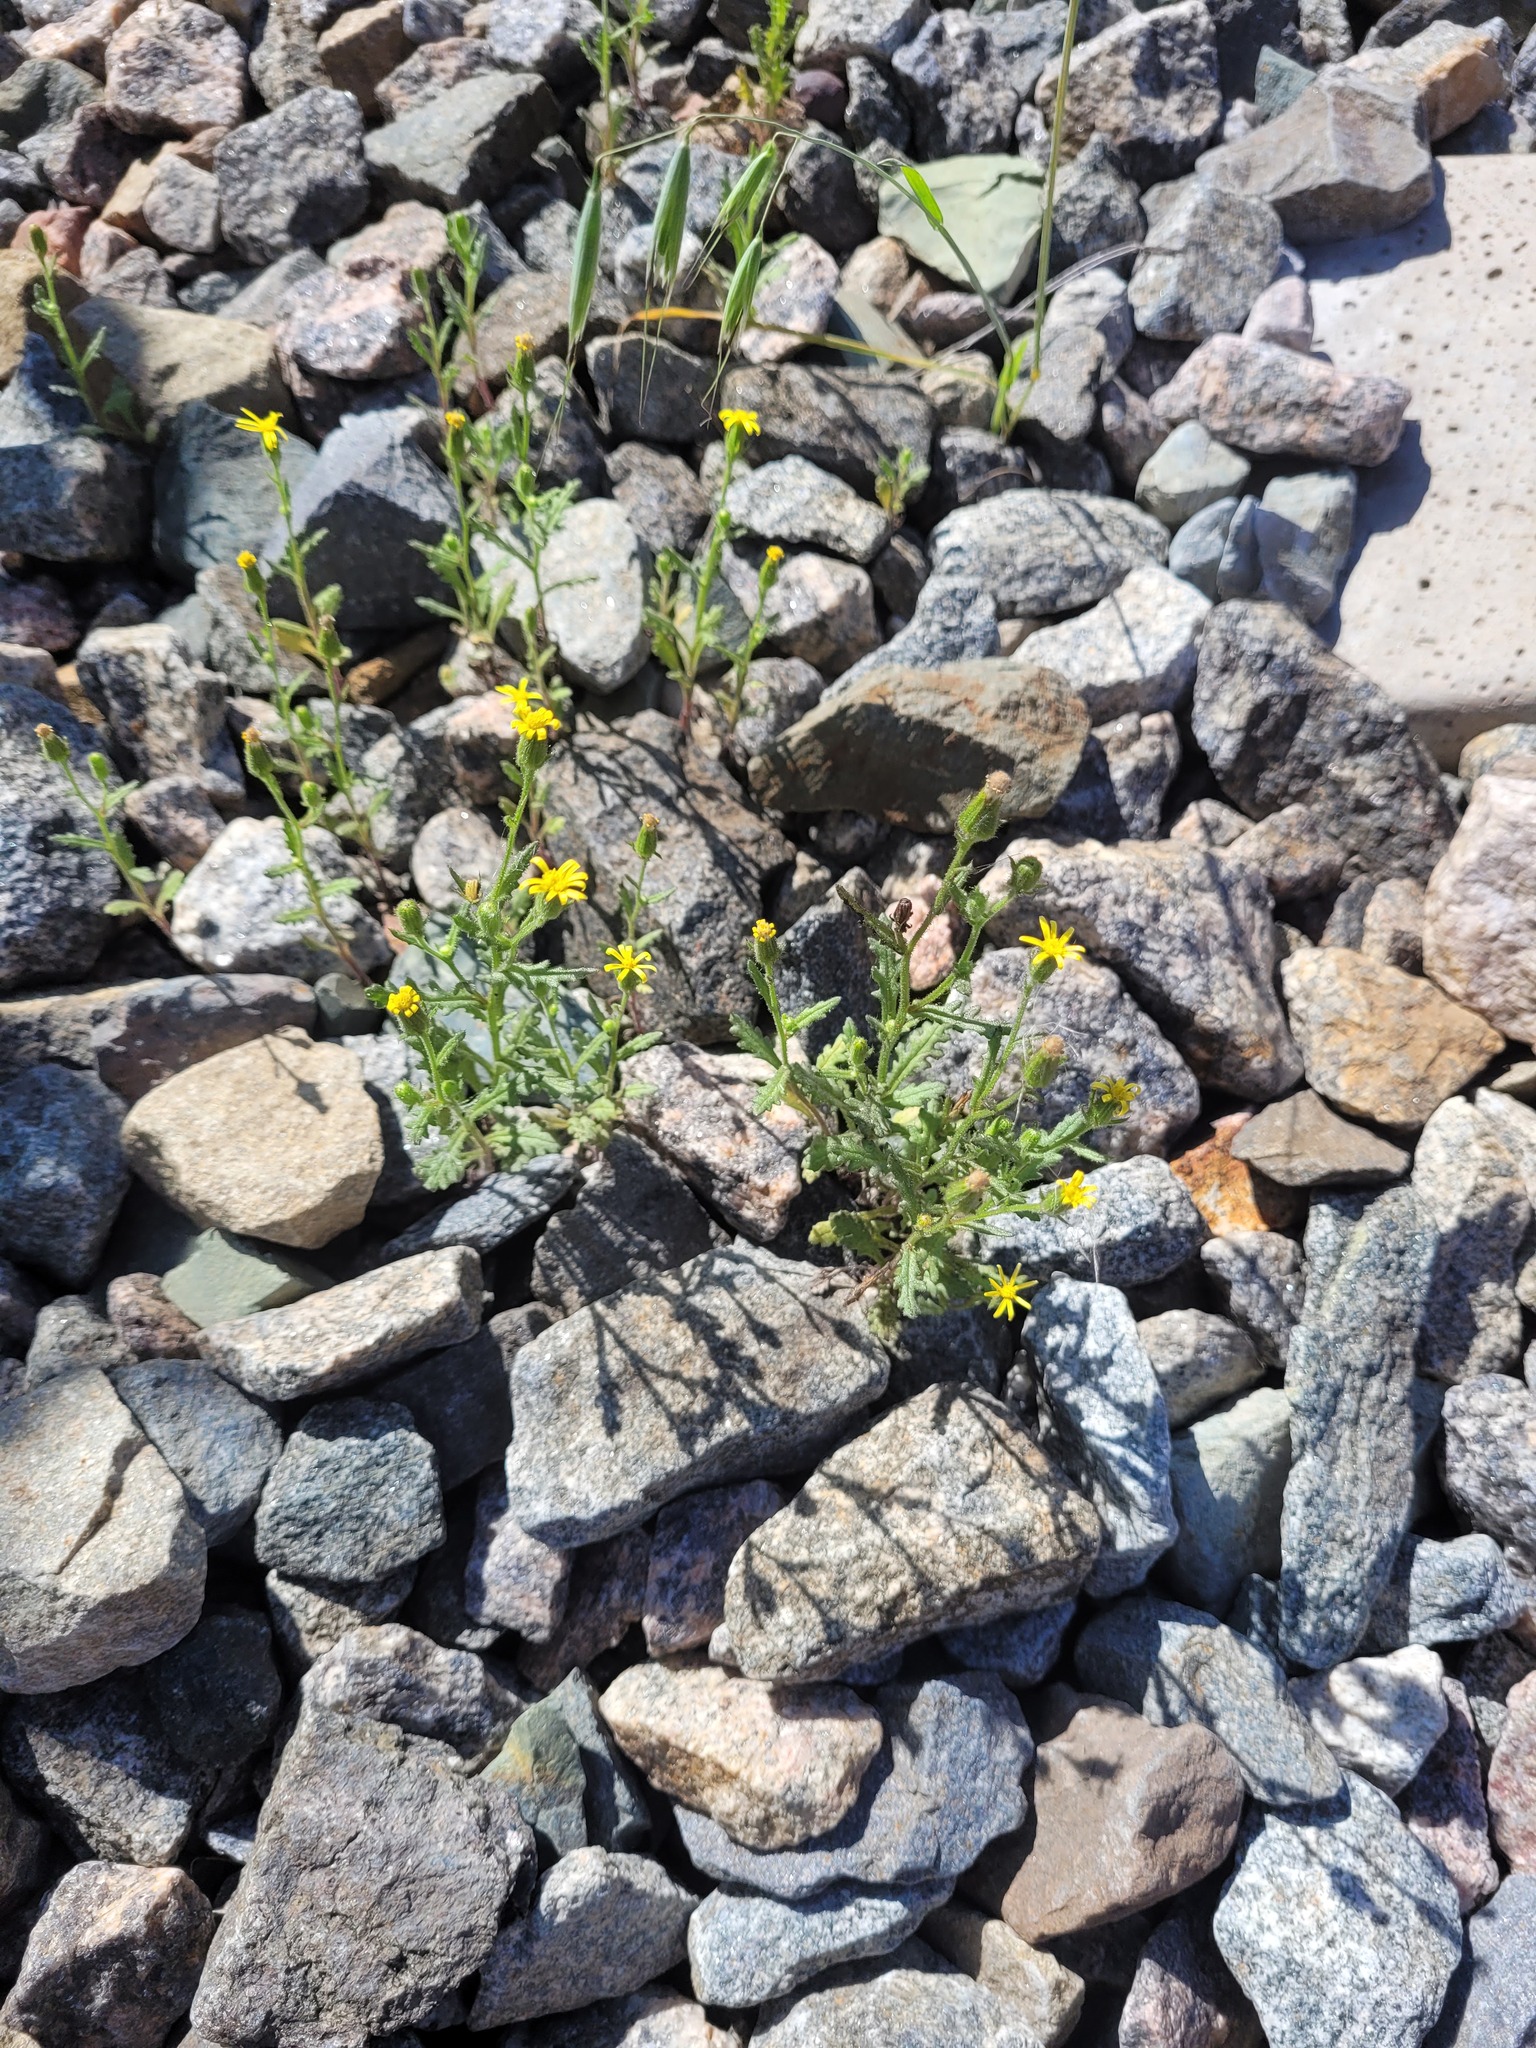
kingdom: Plantae
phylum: Tracheophyta
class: Magnoliopsida
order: Asterales
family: Asteraceae
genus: Senecio
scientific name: Senecio viscosus
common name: Sticky groundsel
